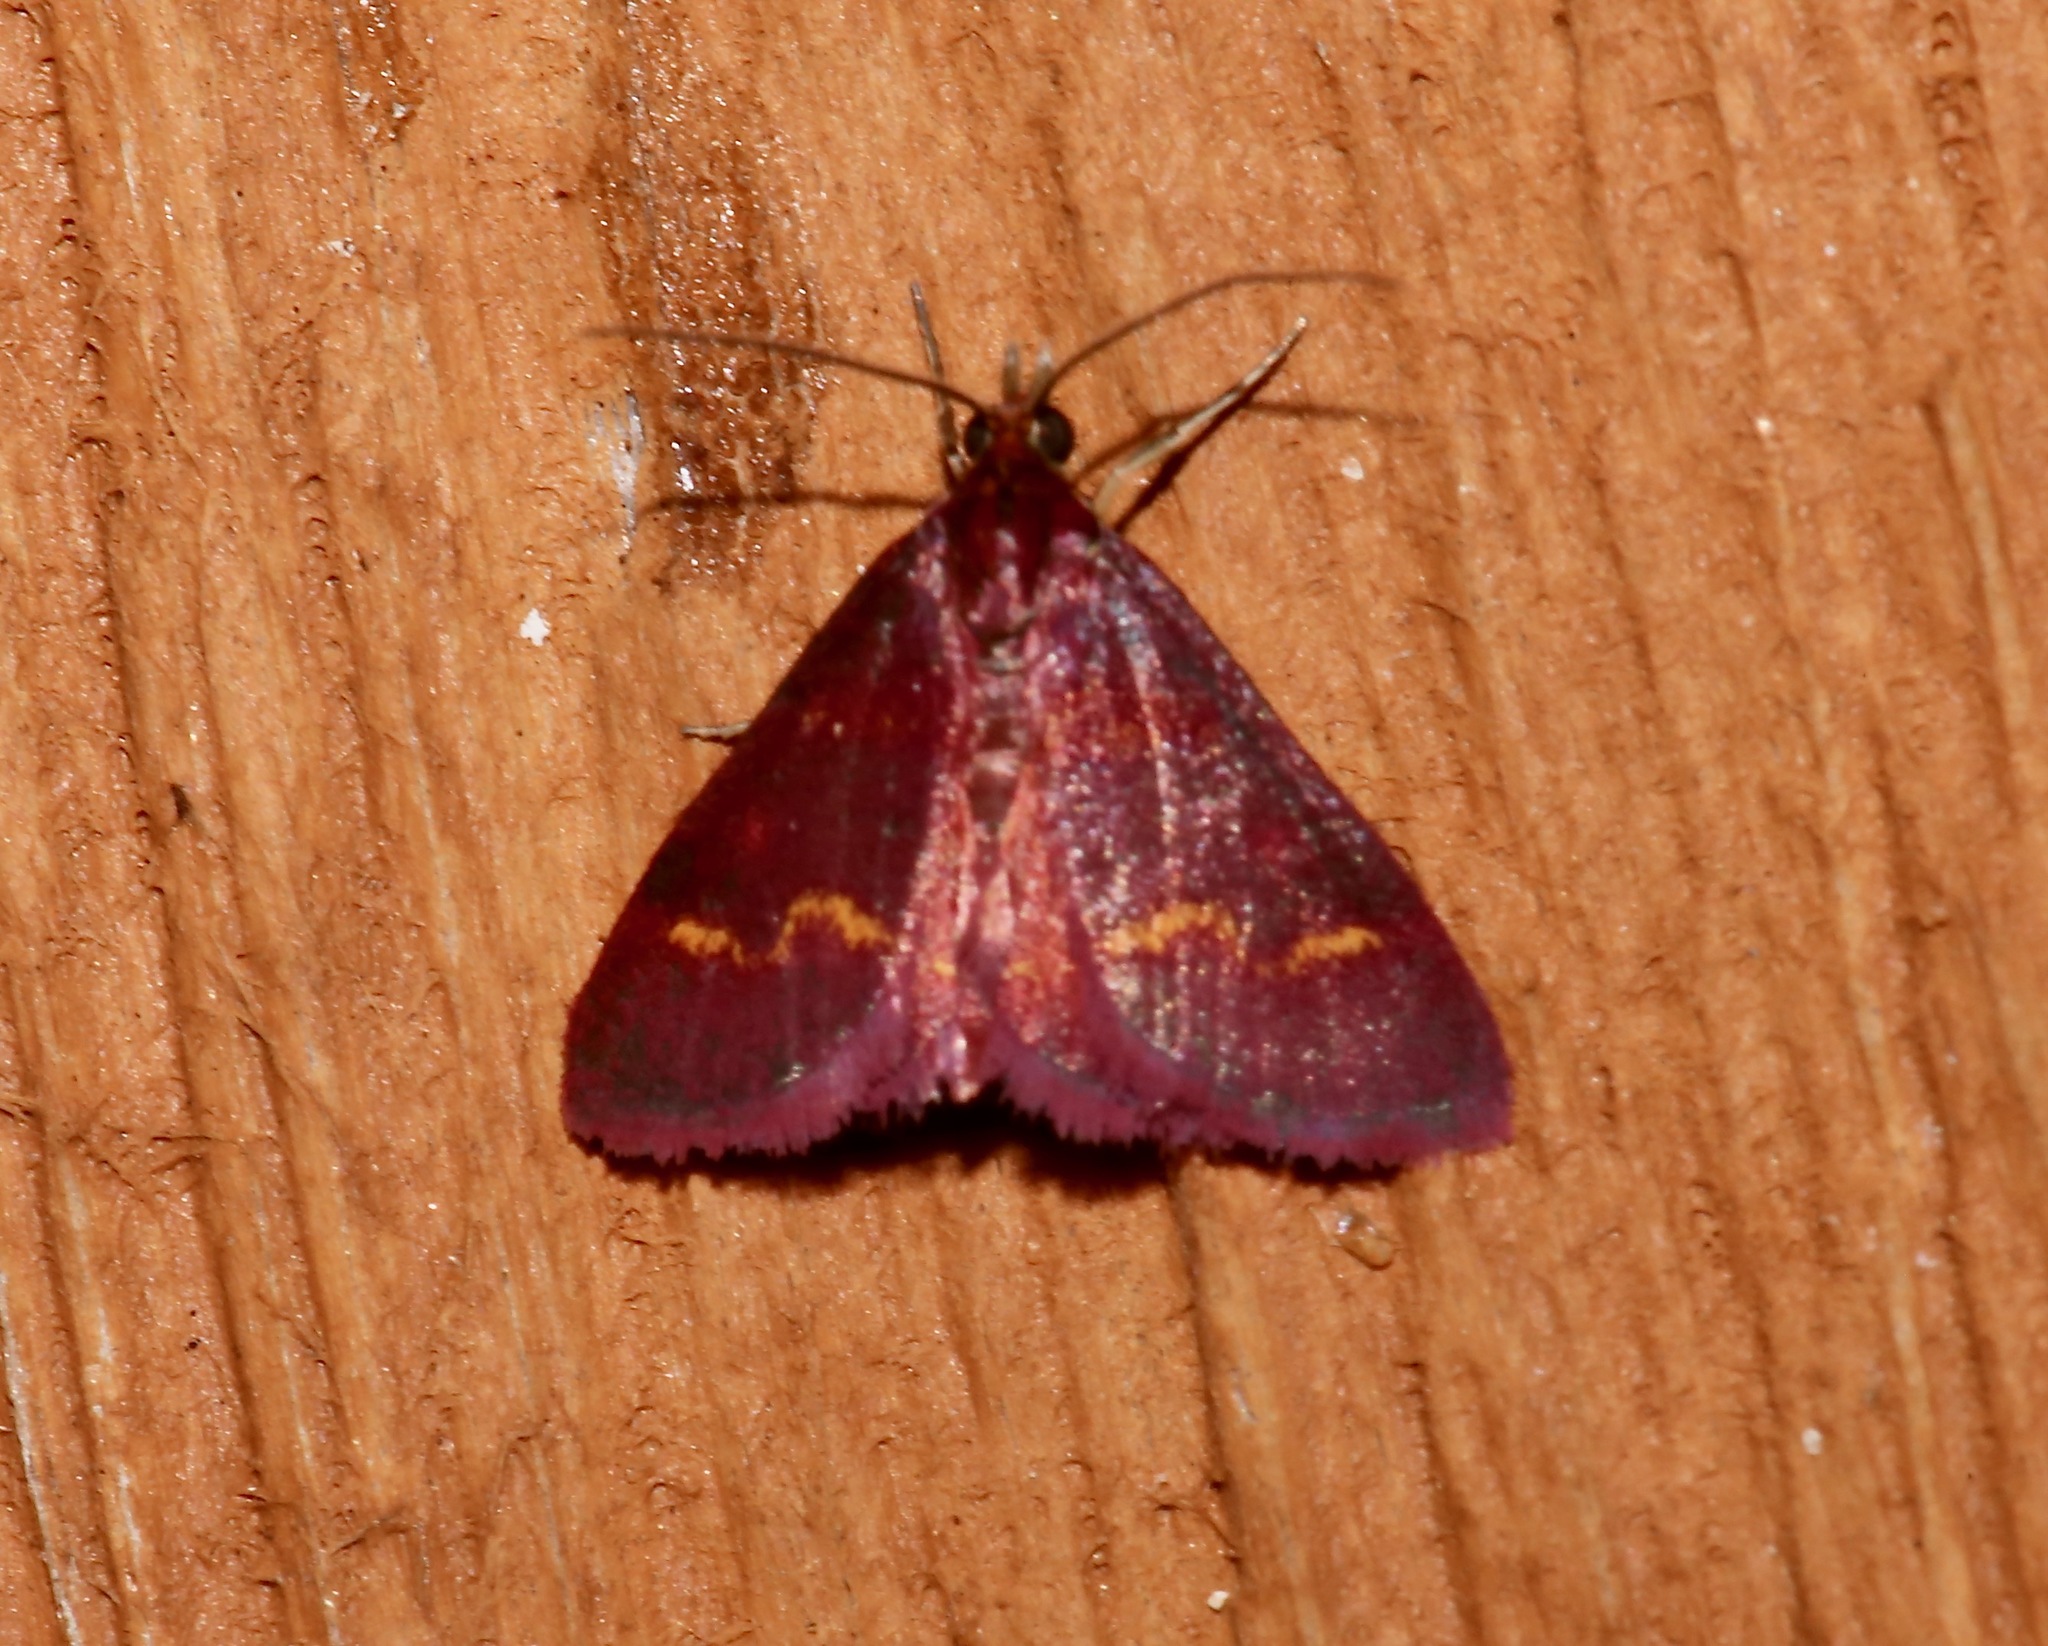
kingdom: Animalia
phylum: Arthropoda
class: Insecta
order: Lepidoptera
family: Crambidae
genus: Pyrausta
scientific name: Pyrausta tyralis
